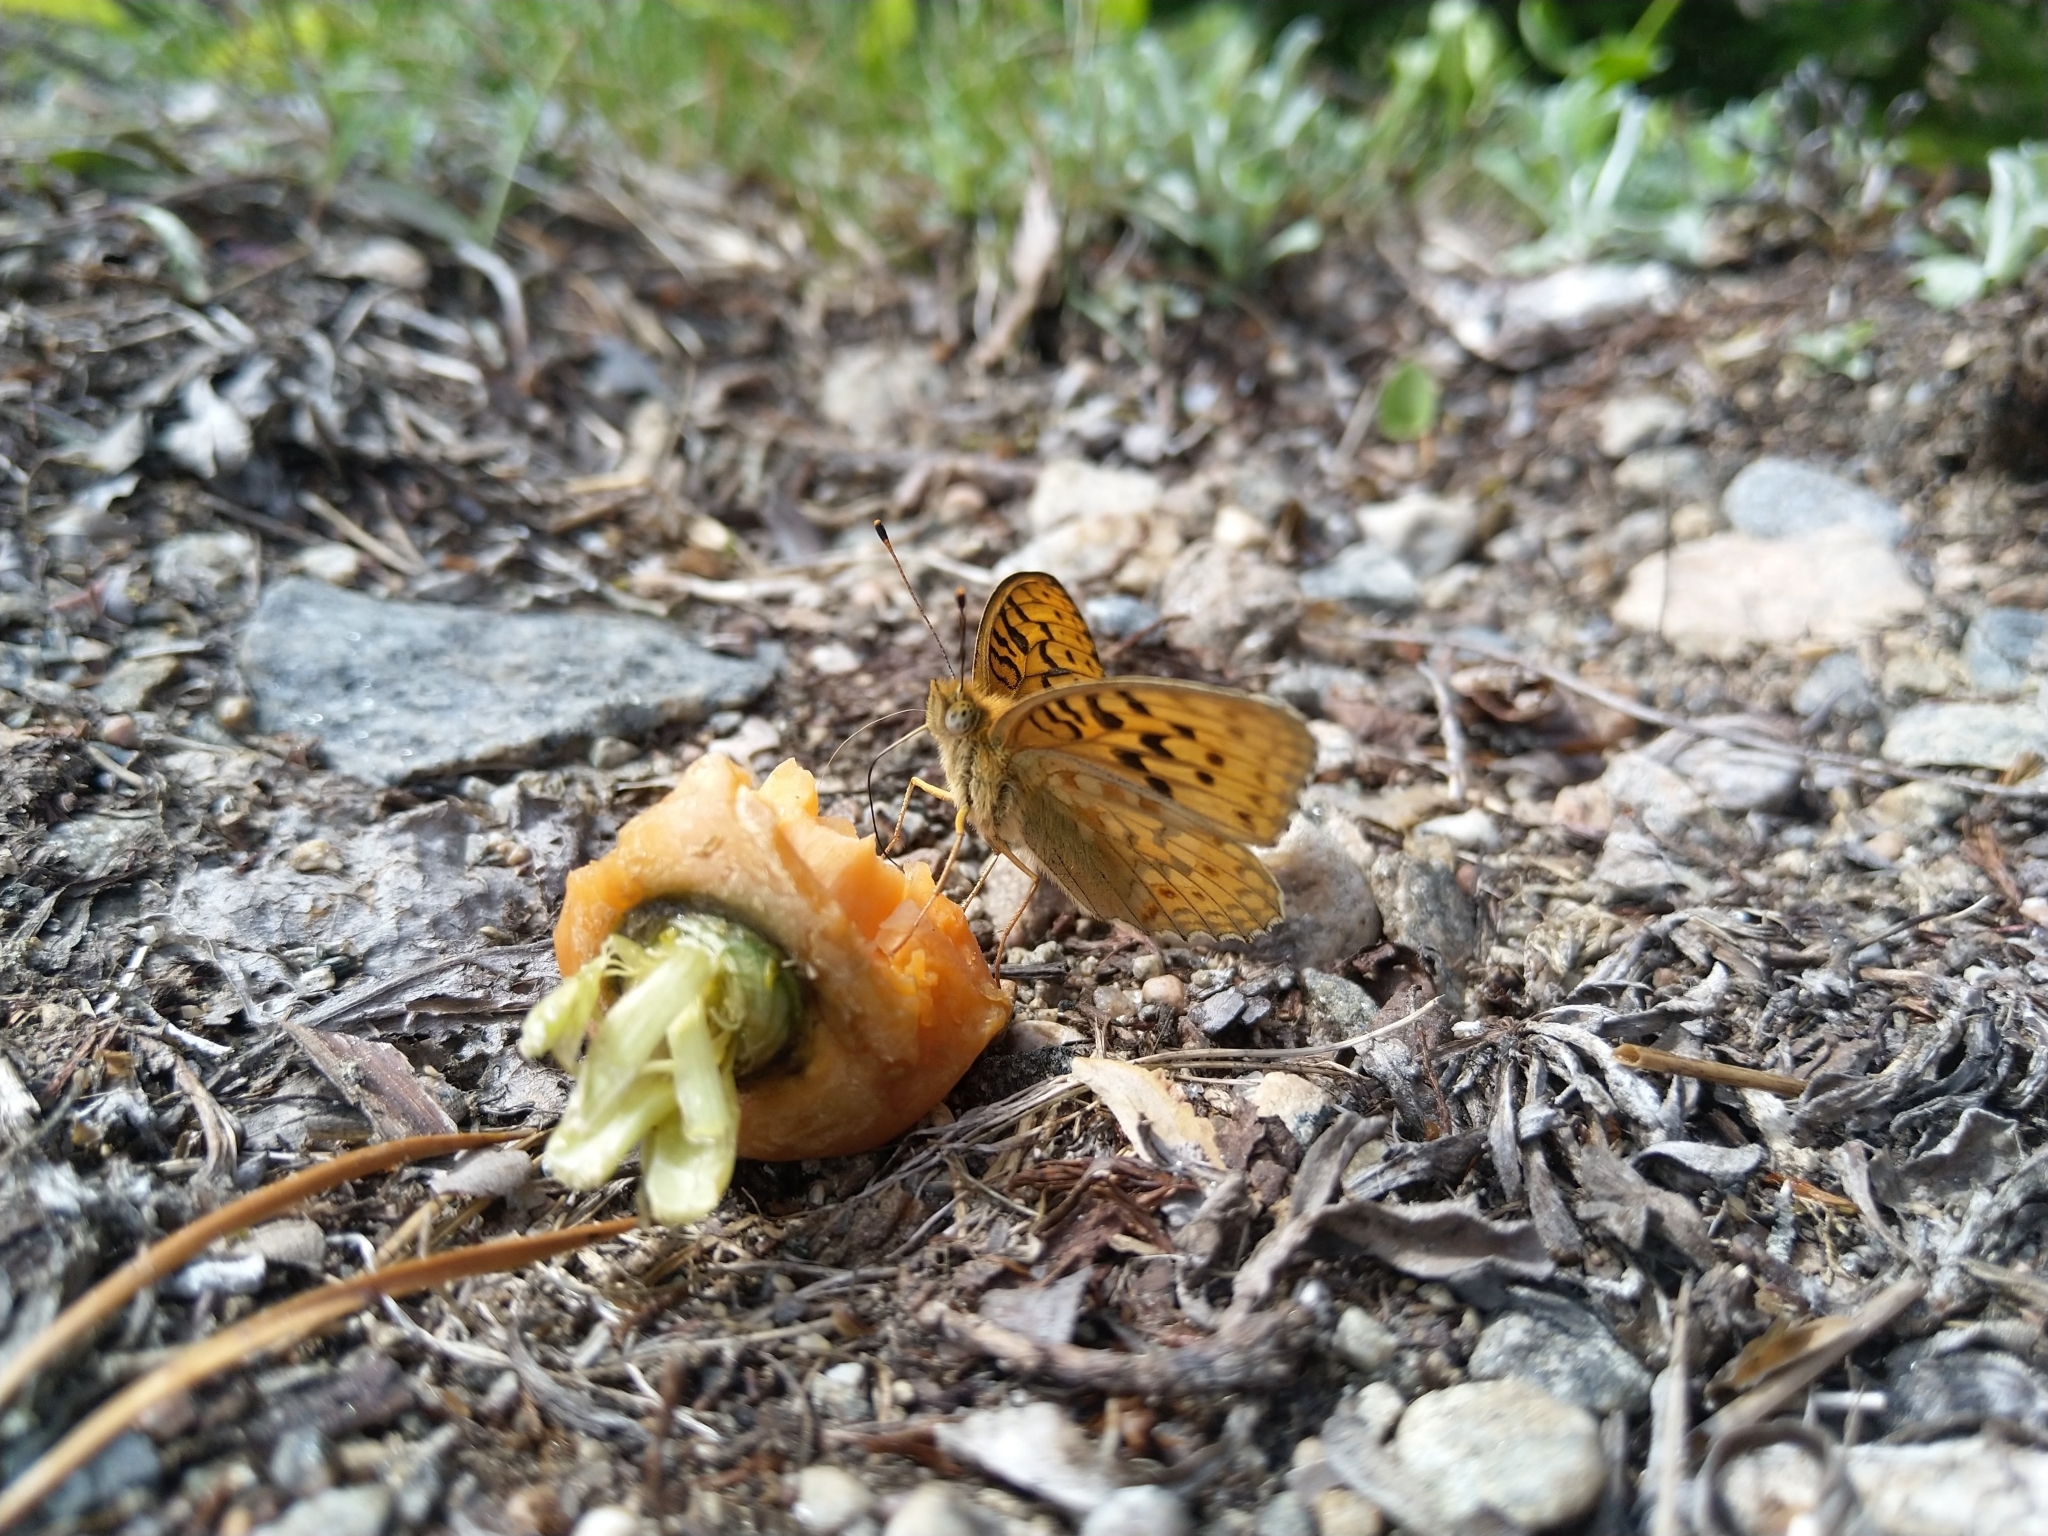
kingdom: Animalia
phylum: Arthropoda
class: Insecta
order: Lepidoptera
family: Nymphalidae
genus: Fabriciana
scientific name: Fabriciana adippe
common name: High brown fritillary
